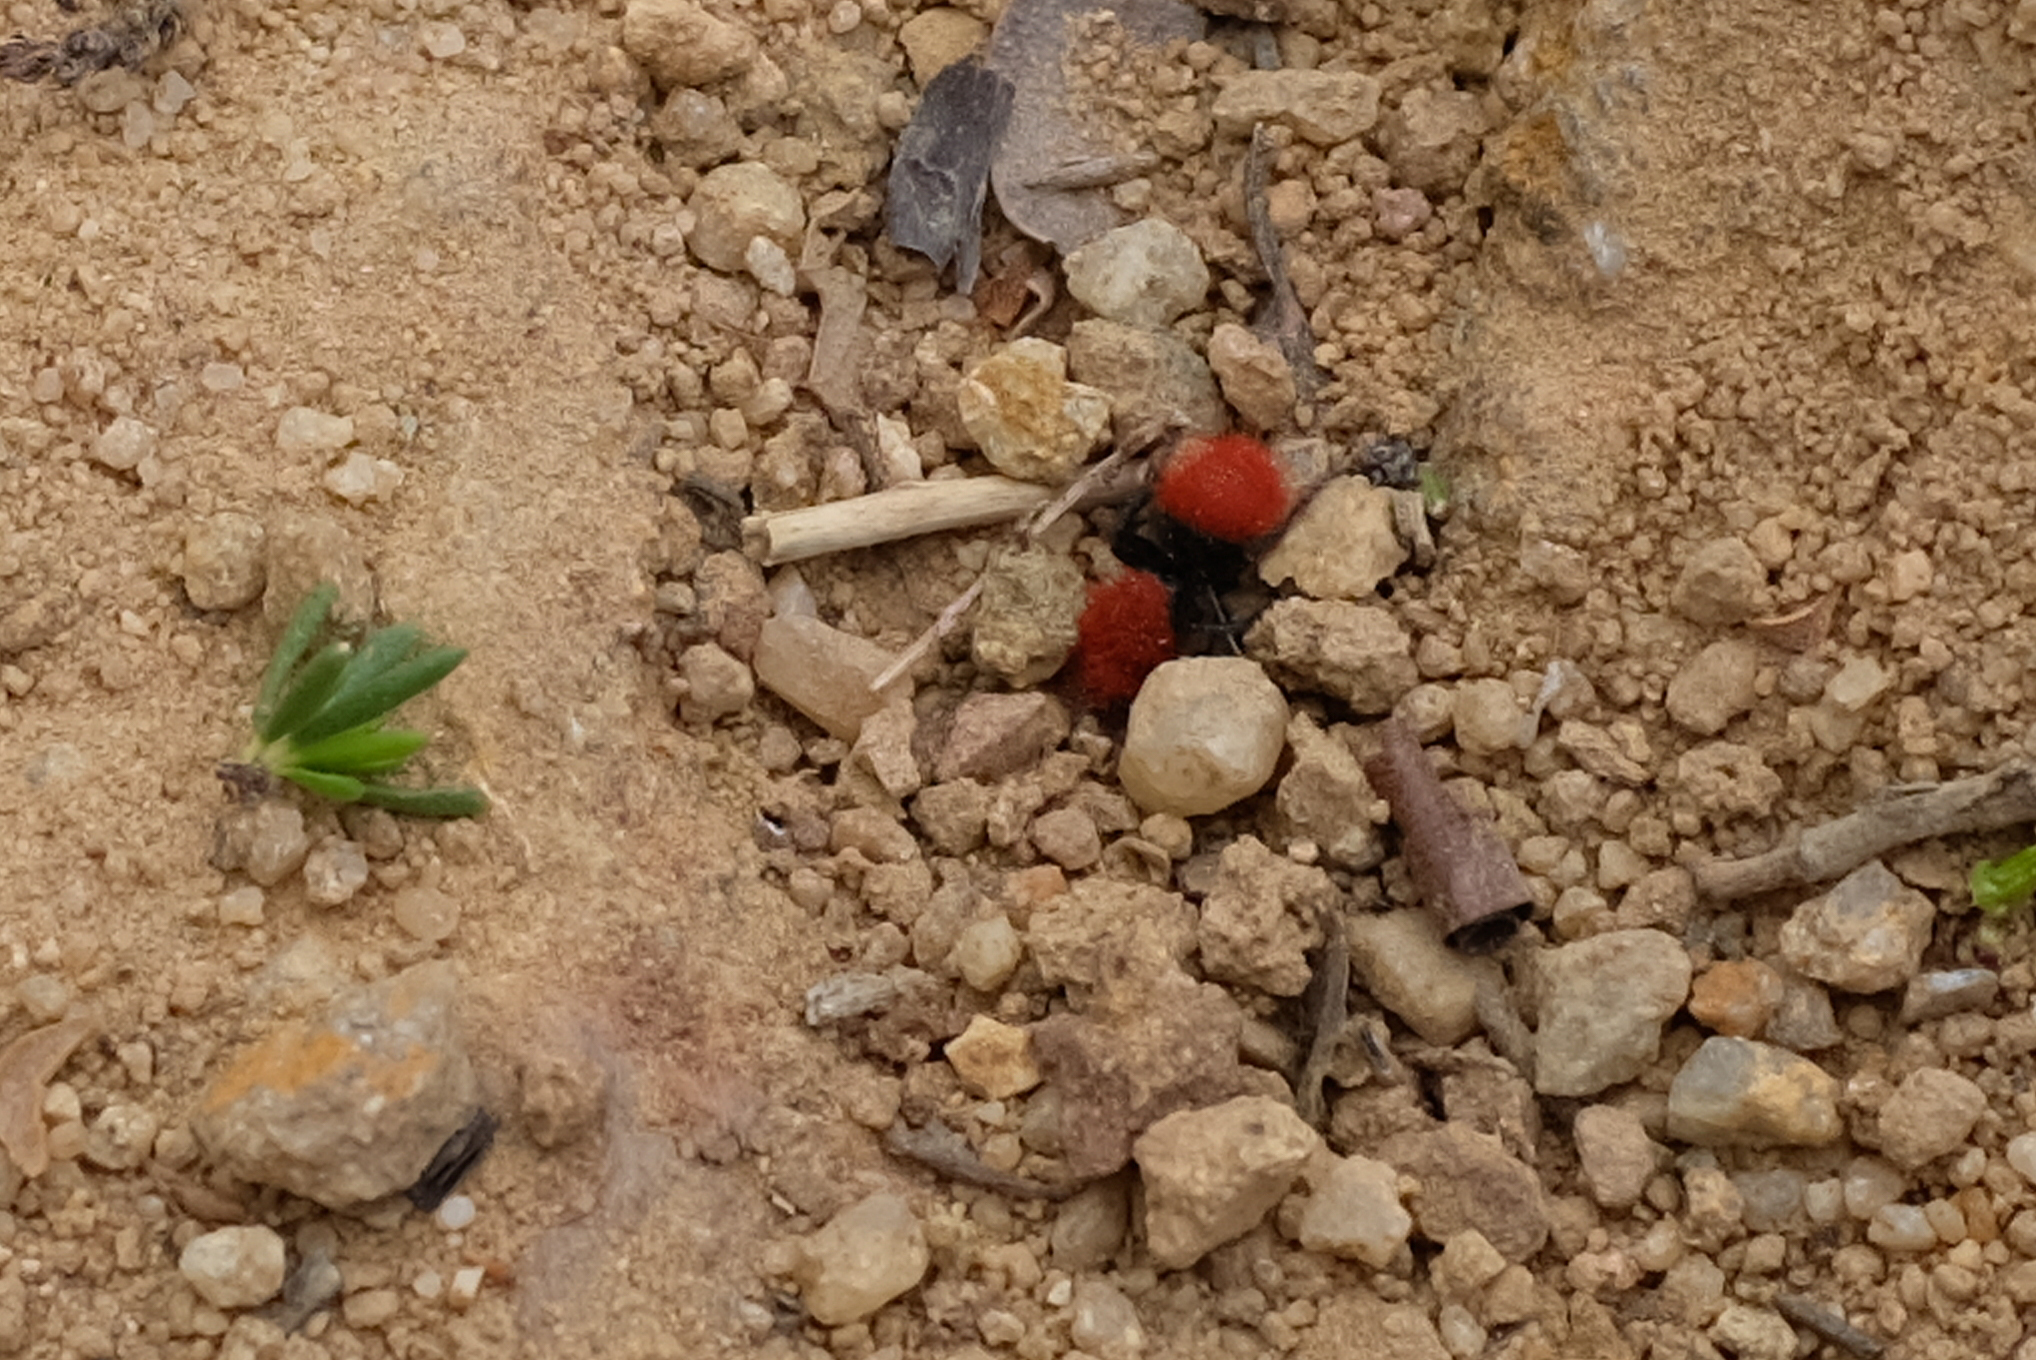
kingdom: Animalia
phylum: Arthropoda
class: Insecta
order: Hymenoptera
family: Mutillidae
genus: Dasymutilla
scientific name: Dasymutilla
